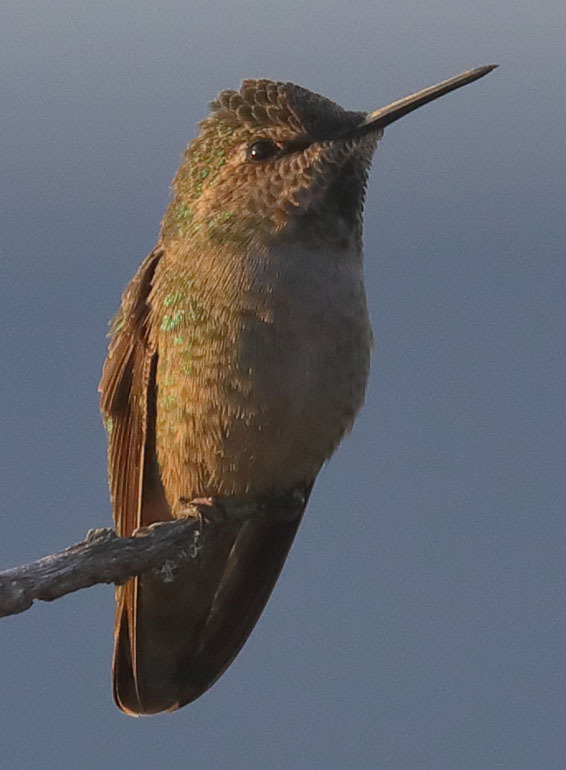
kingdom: Animalia
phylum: Chordata
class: Aves
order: Apodiformes
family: Trochilidae
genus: Calypte
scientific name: Calypte anna
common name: Anna's hummingbird
